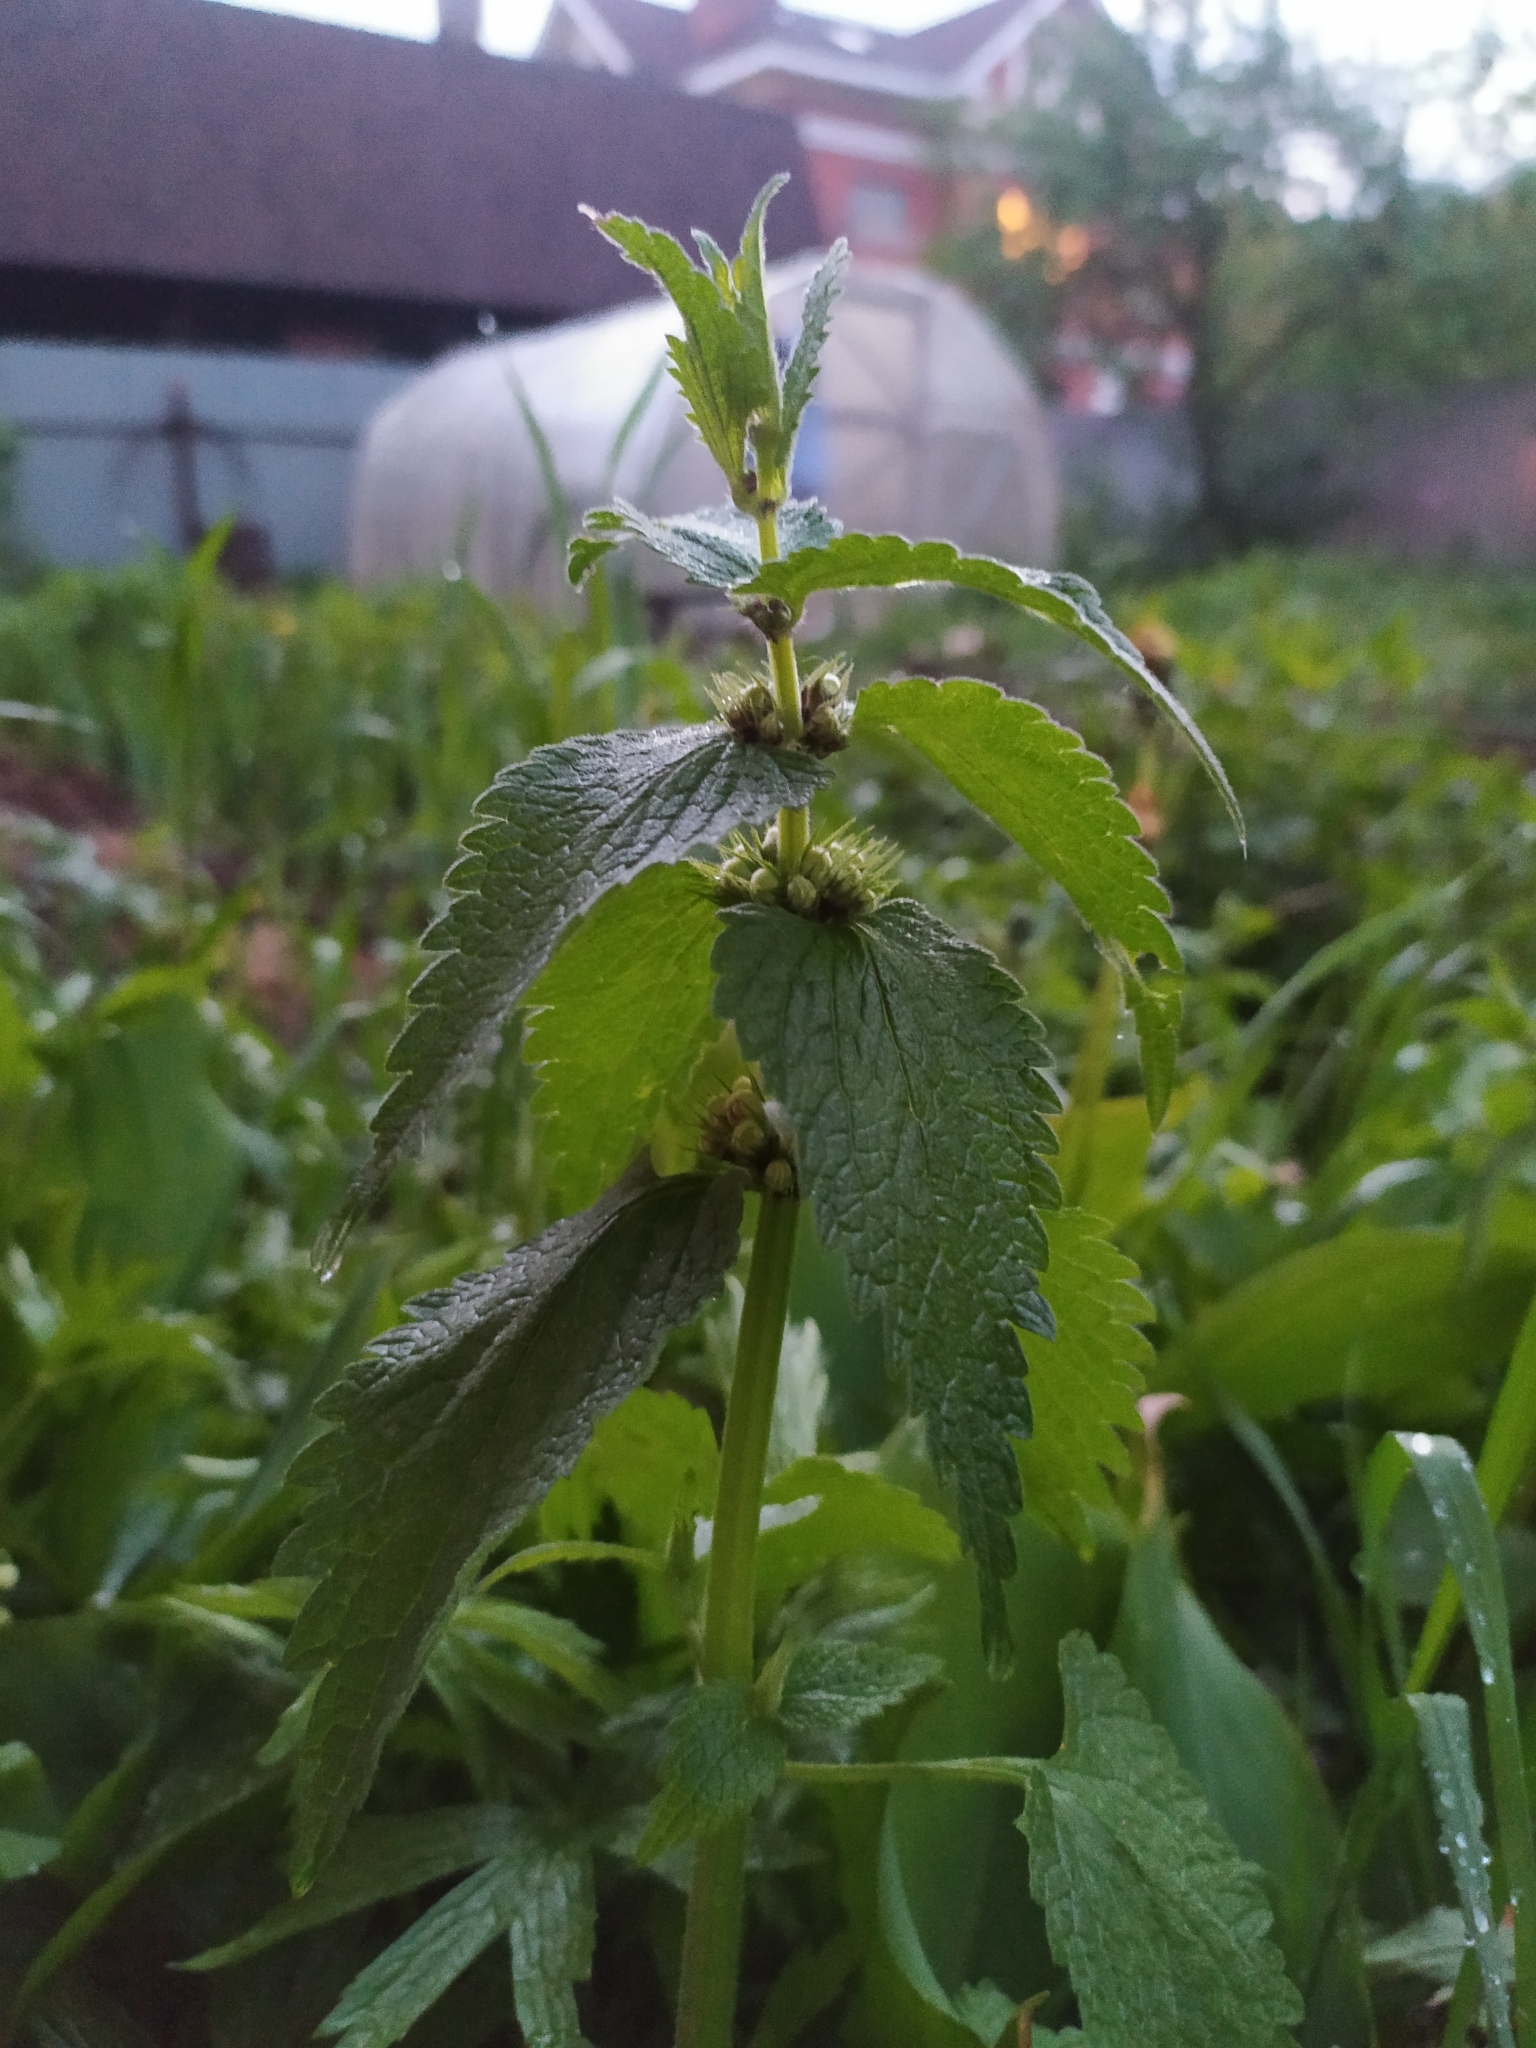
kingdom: Plantae
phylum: Tracheophyta
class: Magnoliopsida
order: Lamiales
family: Lamiaceae
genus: Lamium
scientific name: Lamium album
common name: White dead-nettle
